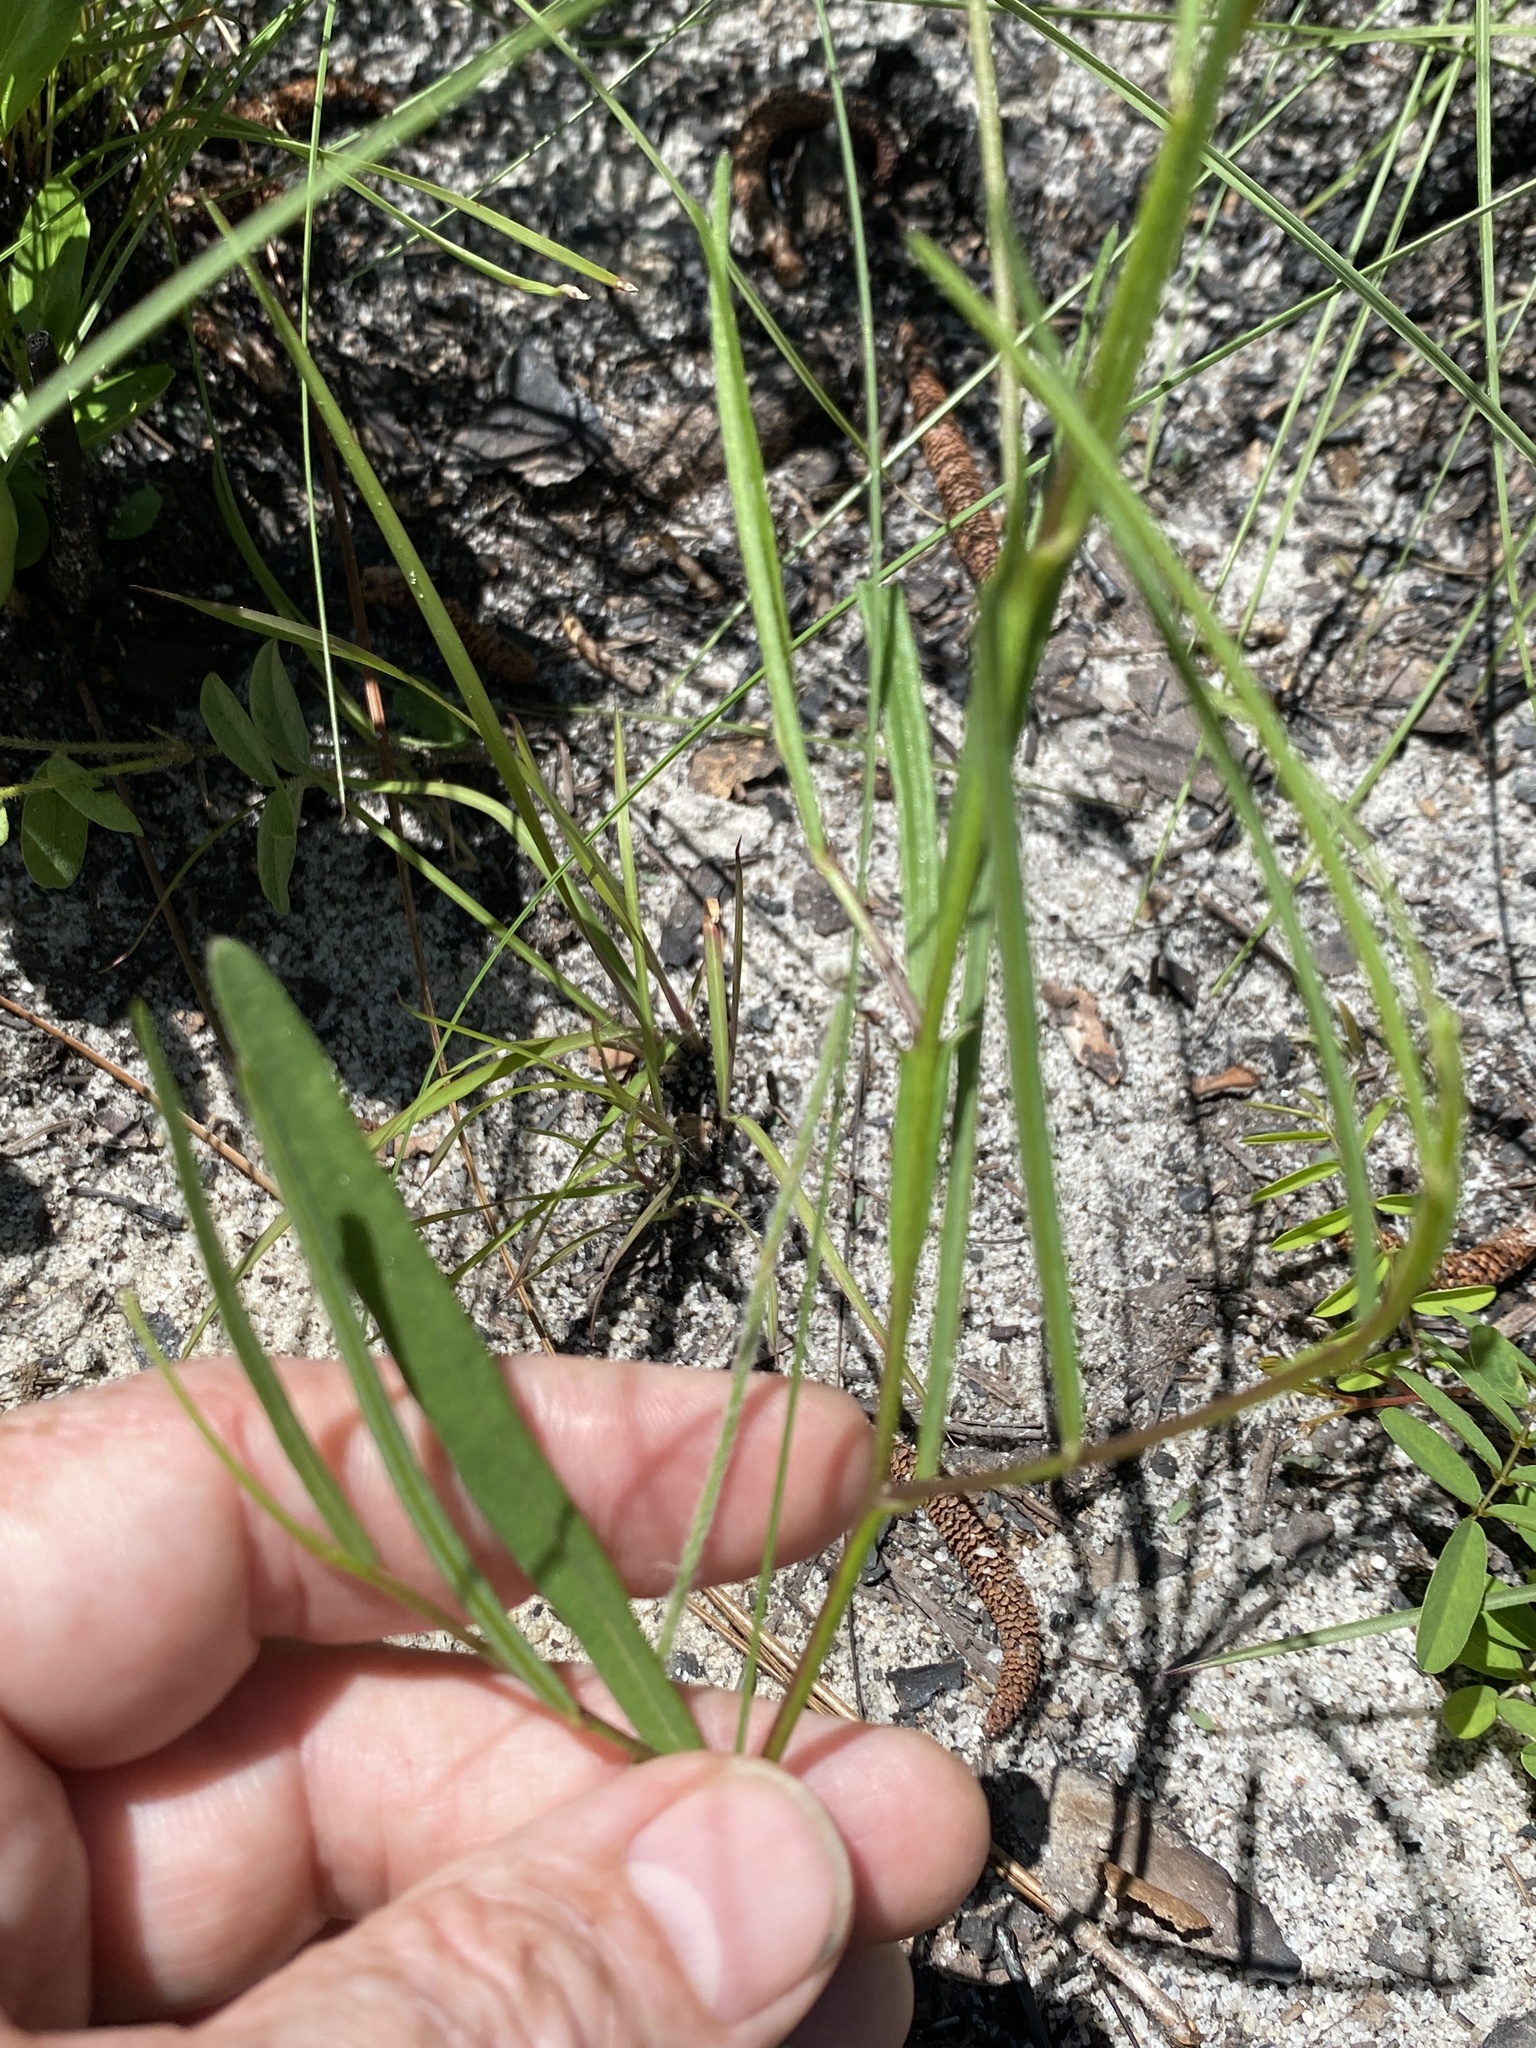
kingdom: Plantae
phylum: Tracheophyta
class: Magnoliopsida
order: Fabales
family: Fabaceae
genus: Crotalaria
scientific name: Crotalaria purshii
